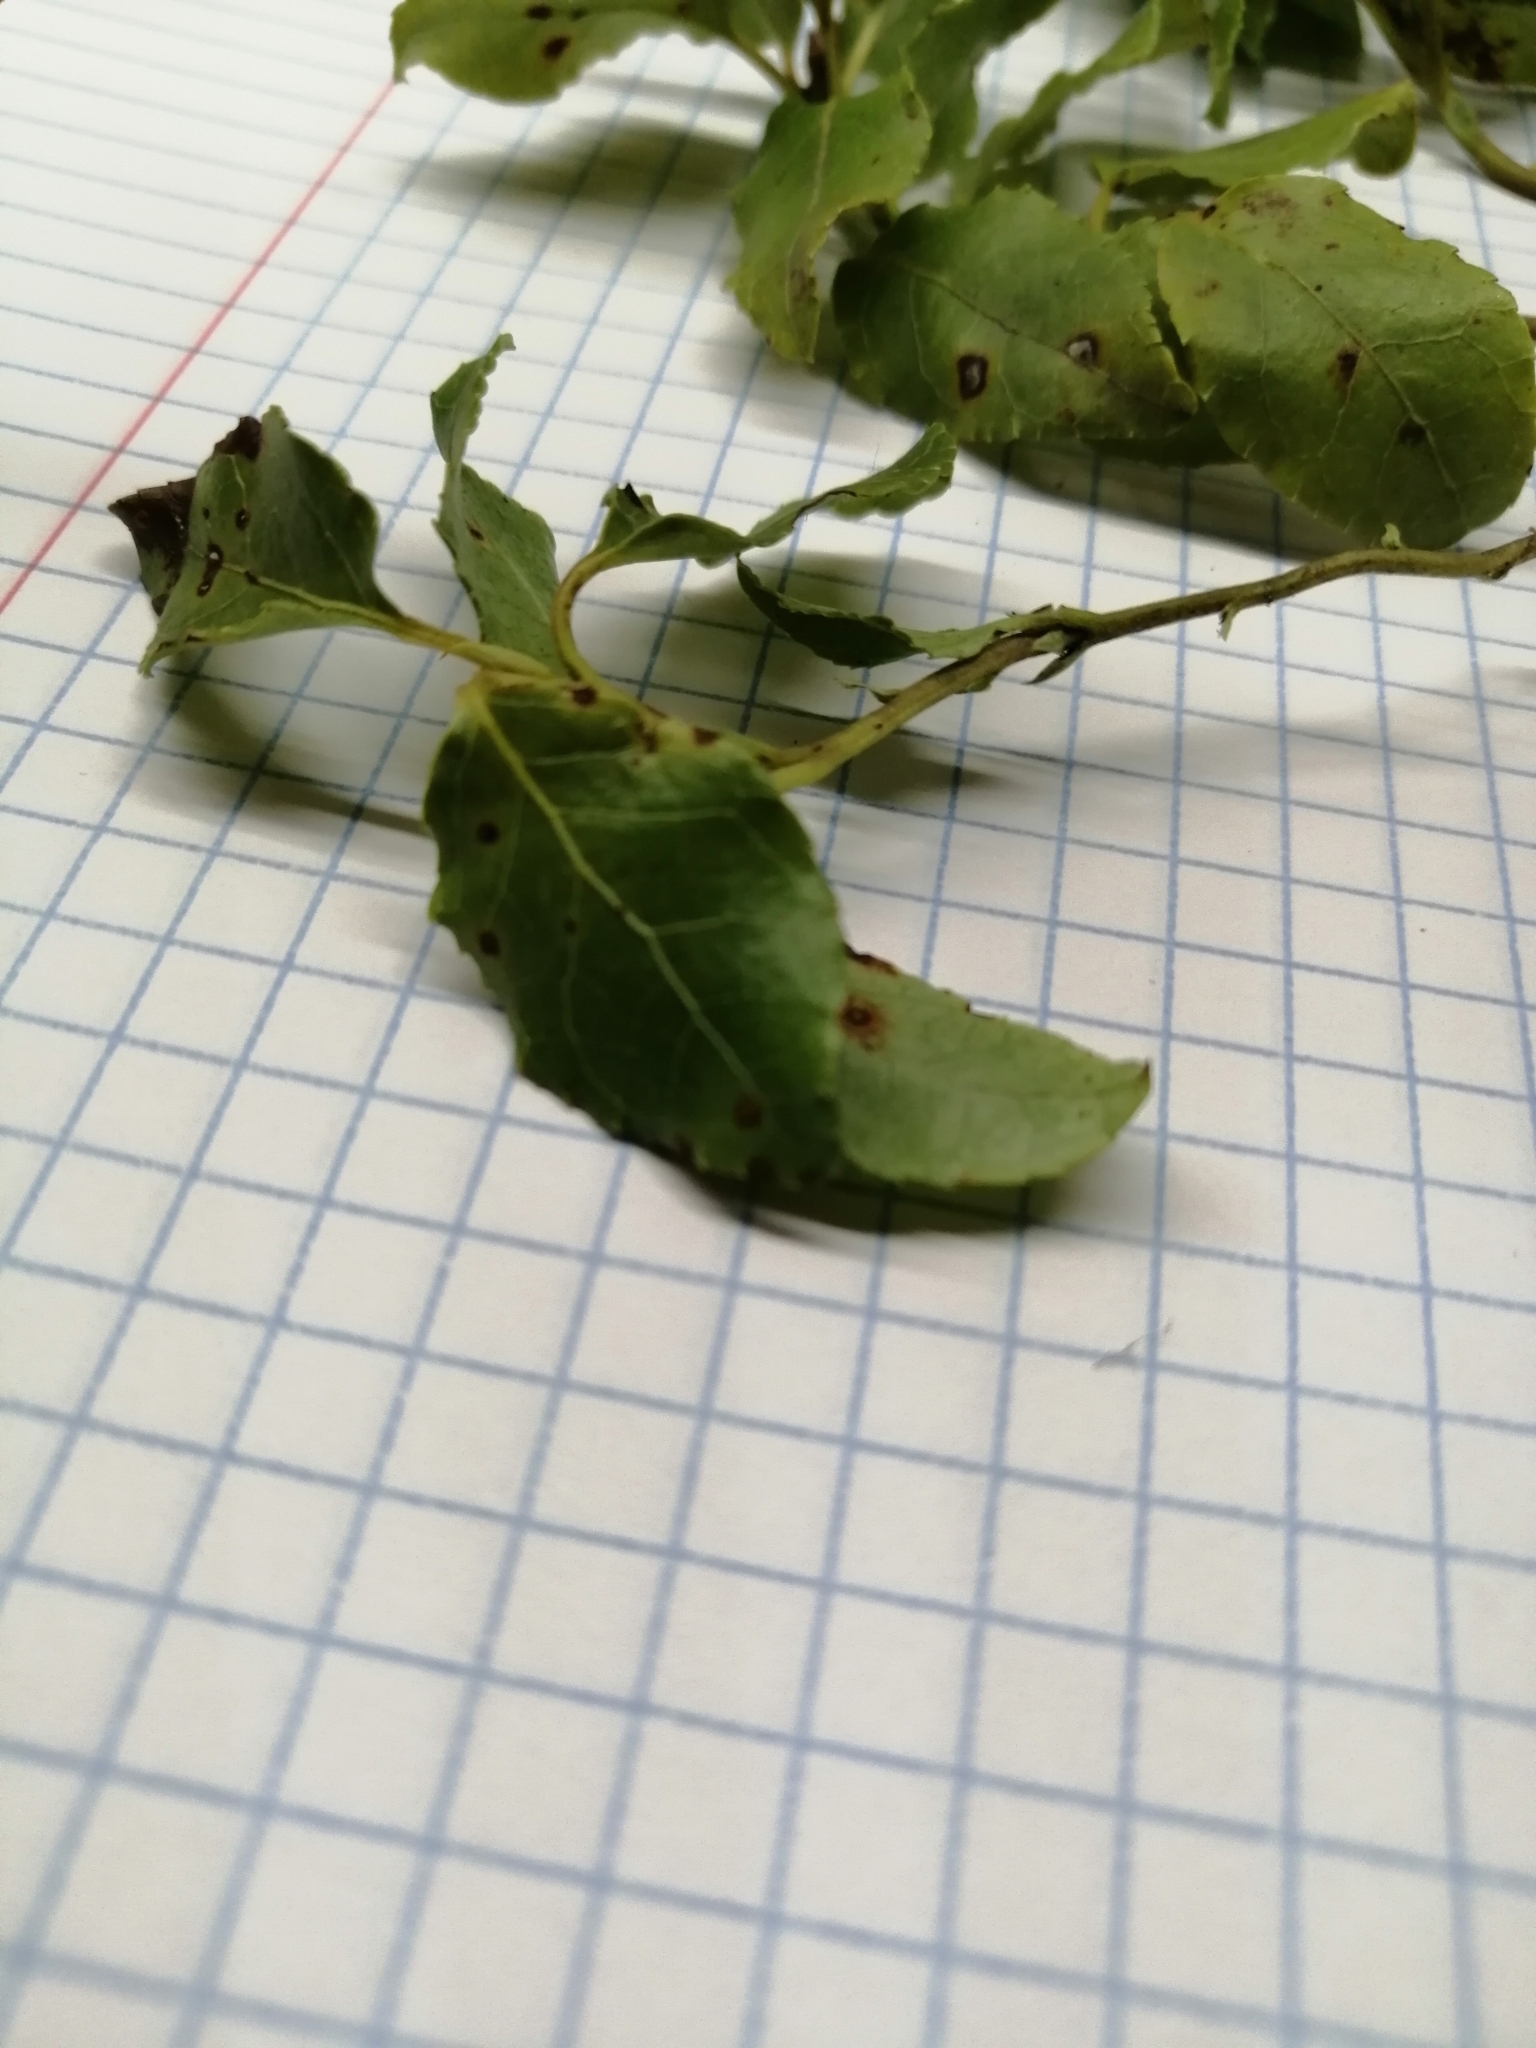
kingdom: Plantae
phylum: Tracheophyta
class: Magnoliopsida
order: Ericales
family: Ericaceae
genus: Orthilia
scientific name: Orthilia secunda
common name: One-sided orthilia
